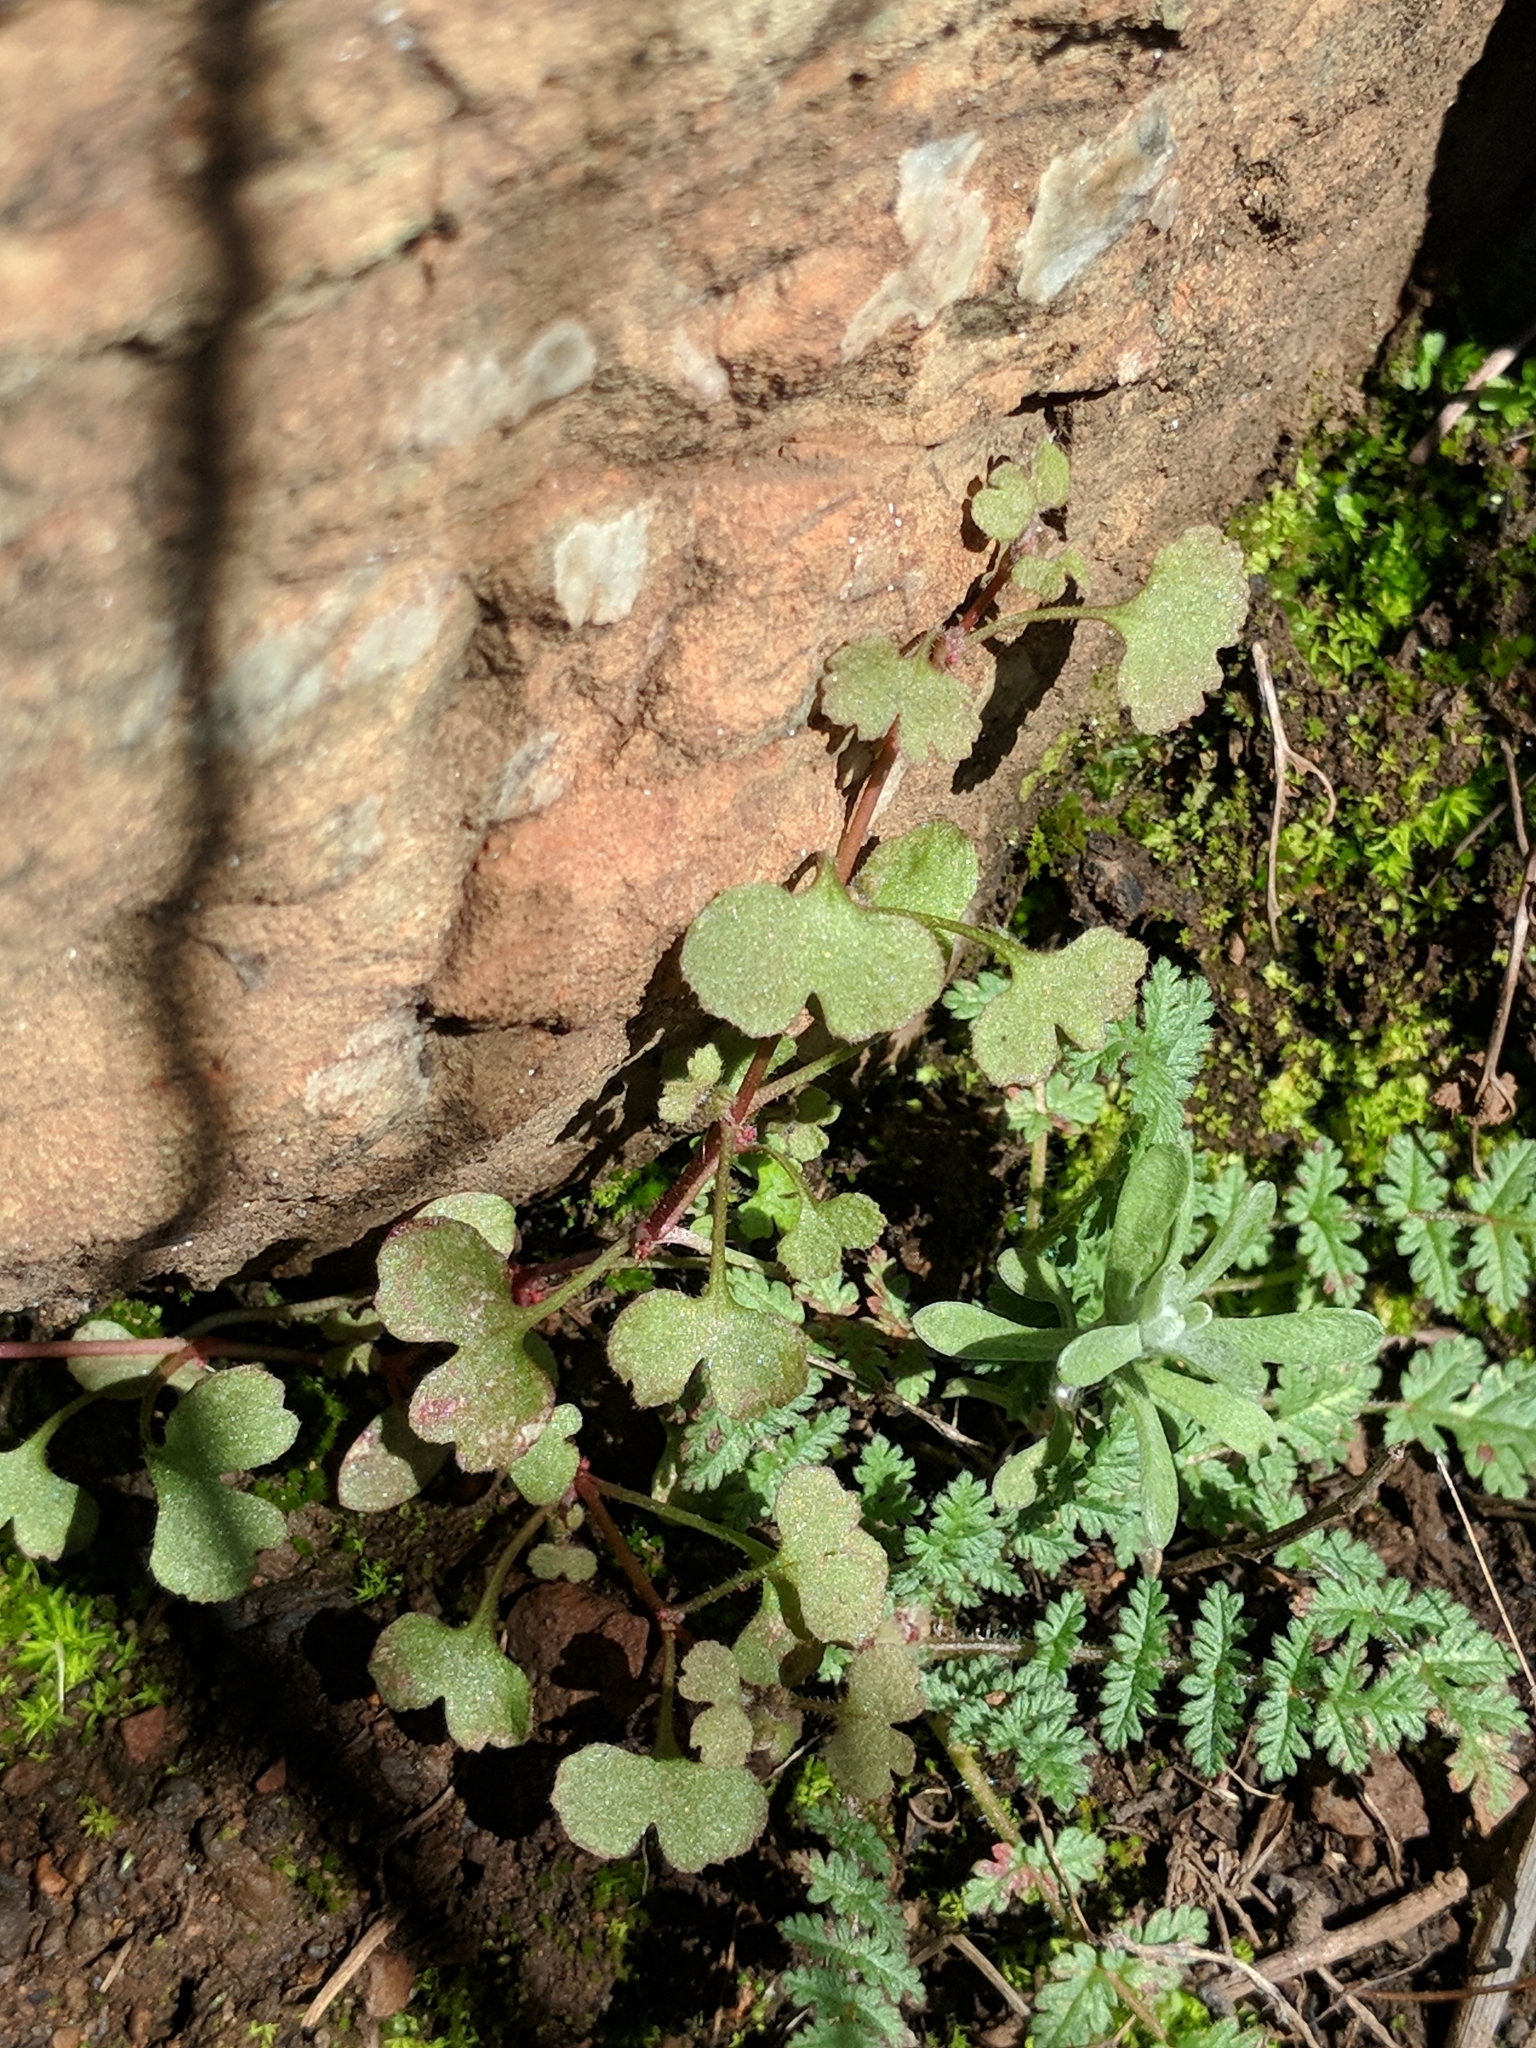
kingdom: Plantae
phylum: Tracheophyta
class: Magnoliopsida
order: Caryophyllales
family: Polygonaceae
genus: Pterostegia
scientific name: Pterostegia drymarioides
